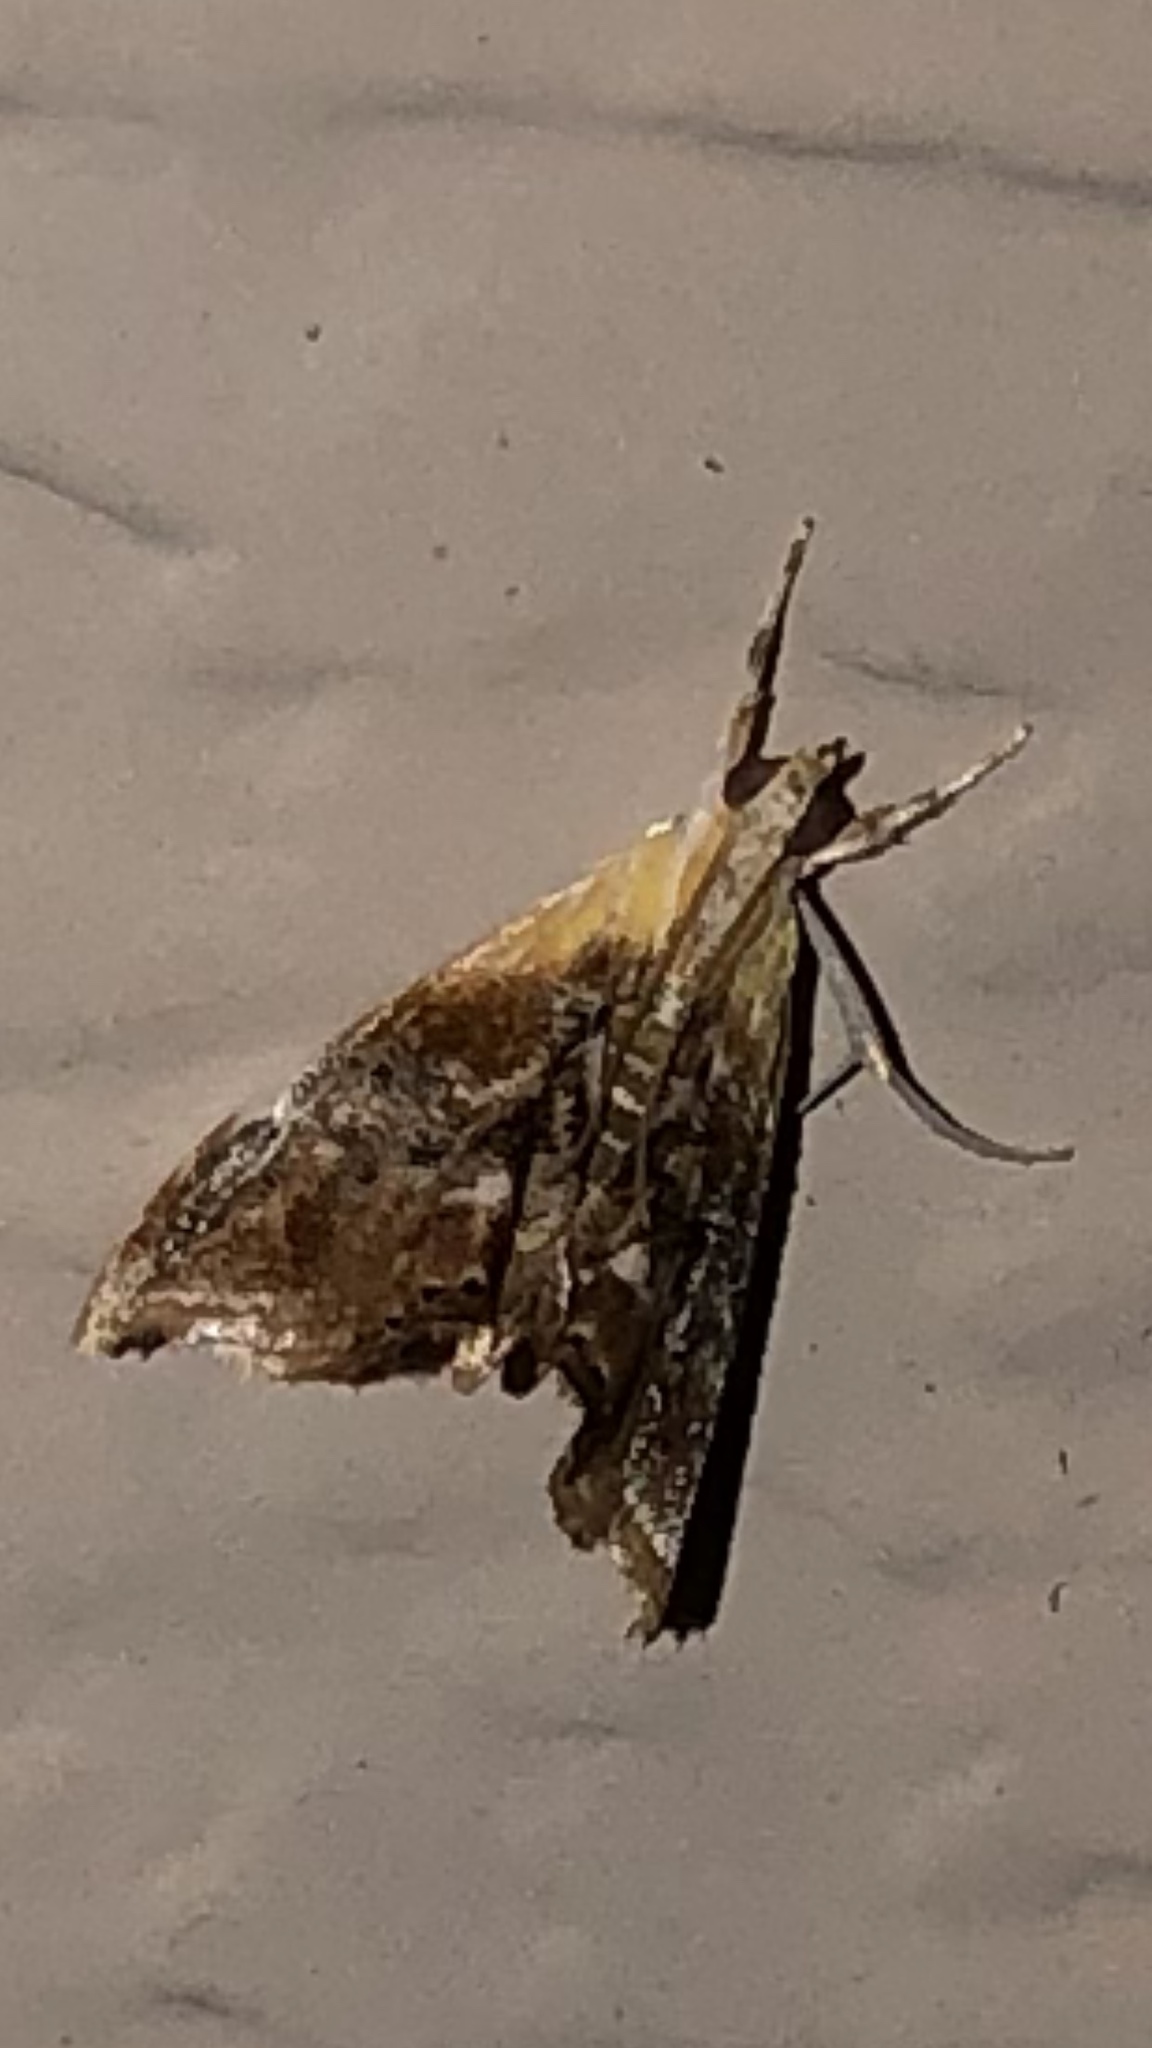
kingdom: Animalia
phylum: Arthropoda
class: Insecta
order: Lepidoptera
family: Crambidae
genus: Dicymolomia
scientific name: Dicymolomia julianalis
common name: Julia's dicymolomia moth
